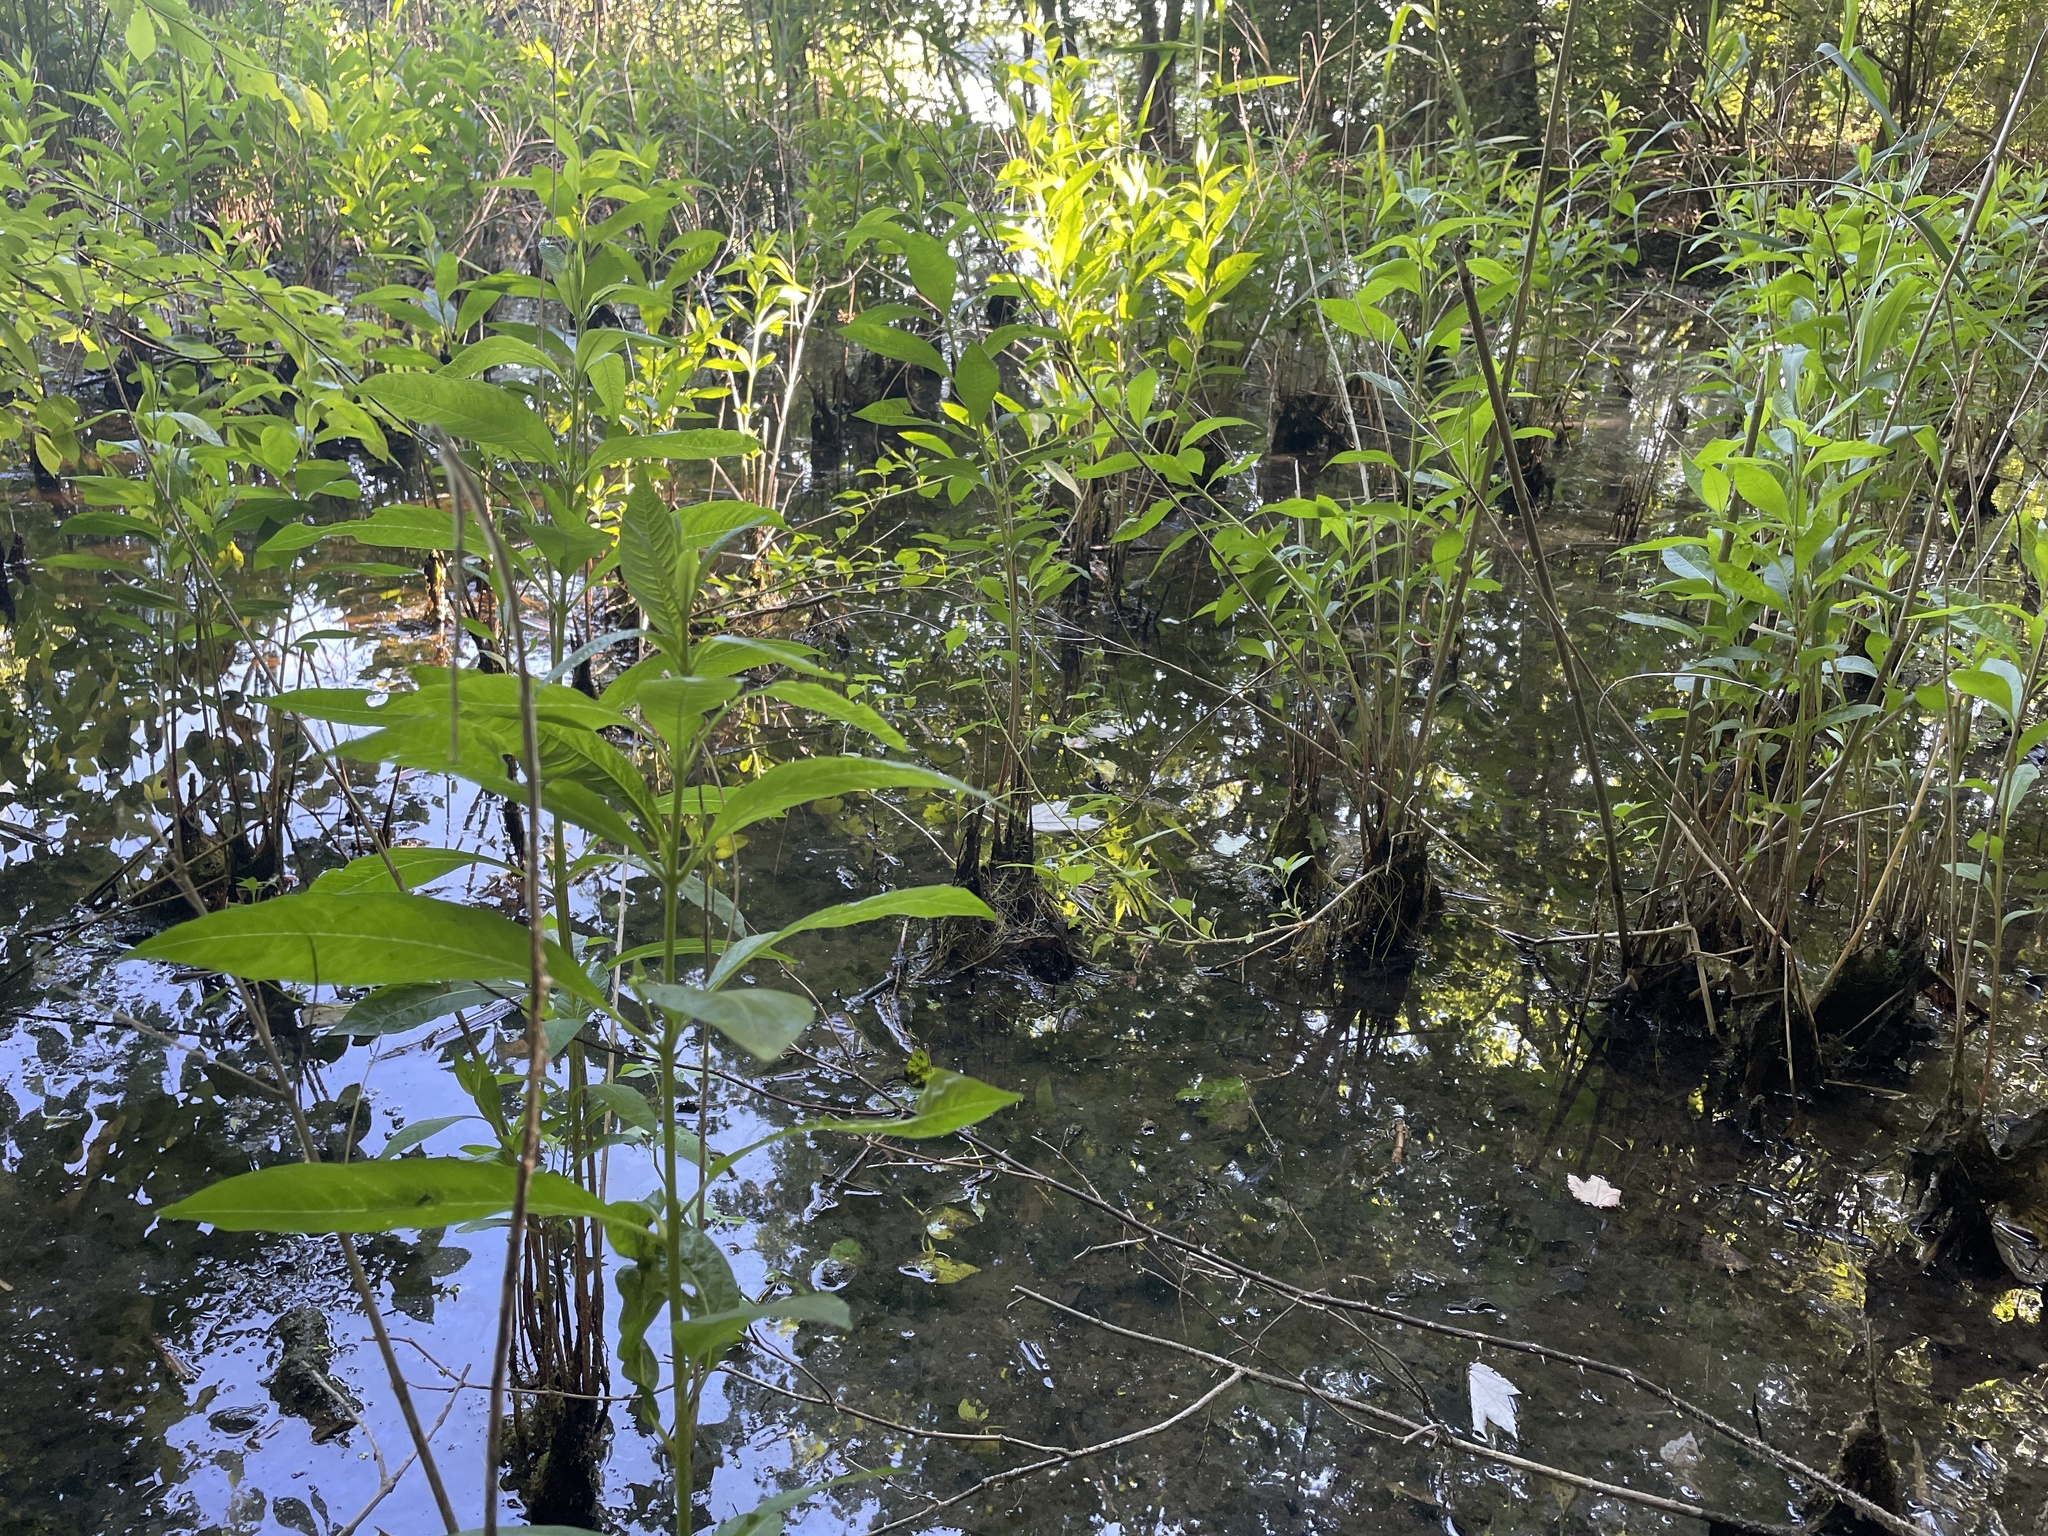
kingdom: Plantae
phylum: Tracheophyta
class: Magnoliopsida
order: Myrtales
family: Lythraceae
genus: Decodon
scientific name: Decodon verticillatus
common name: Hairy swamp loosestrife
